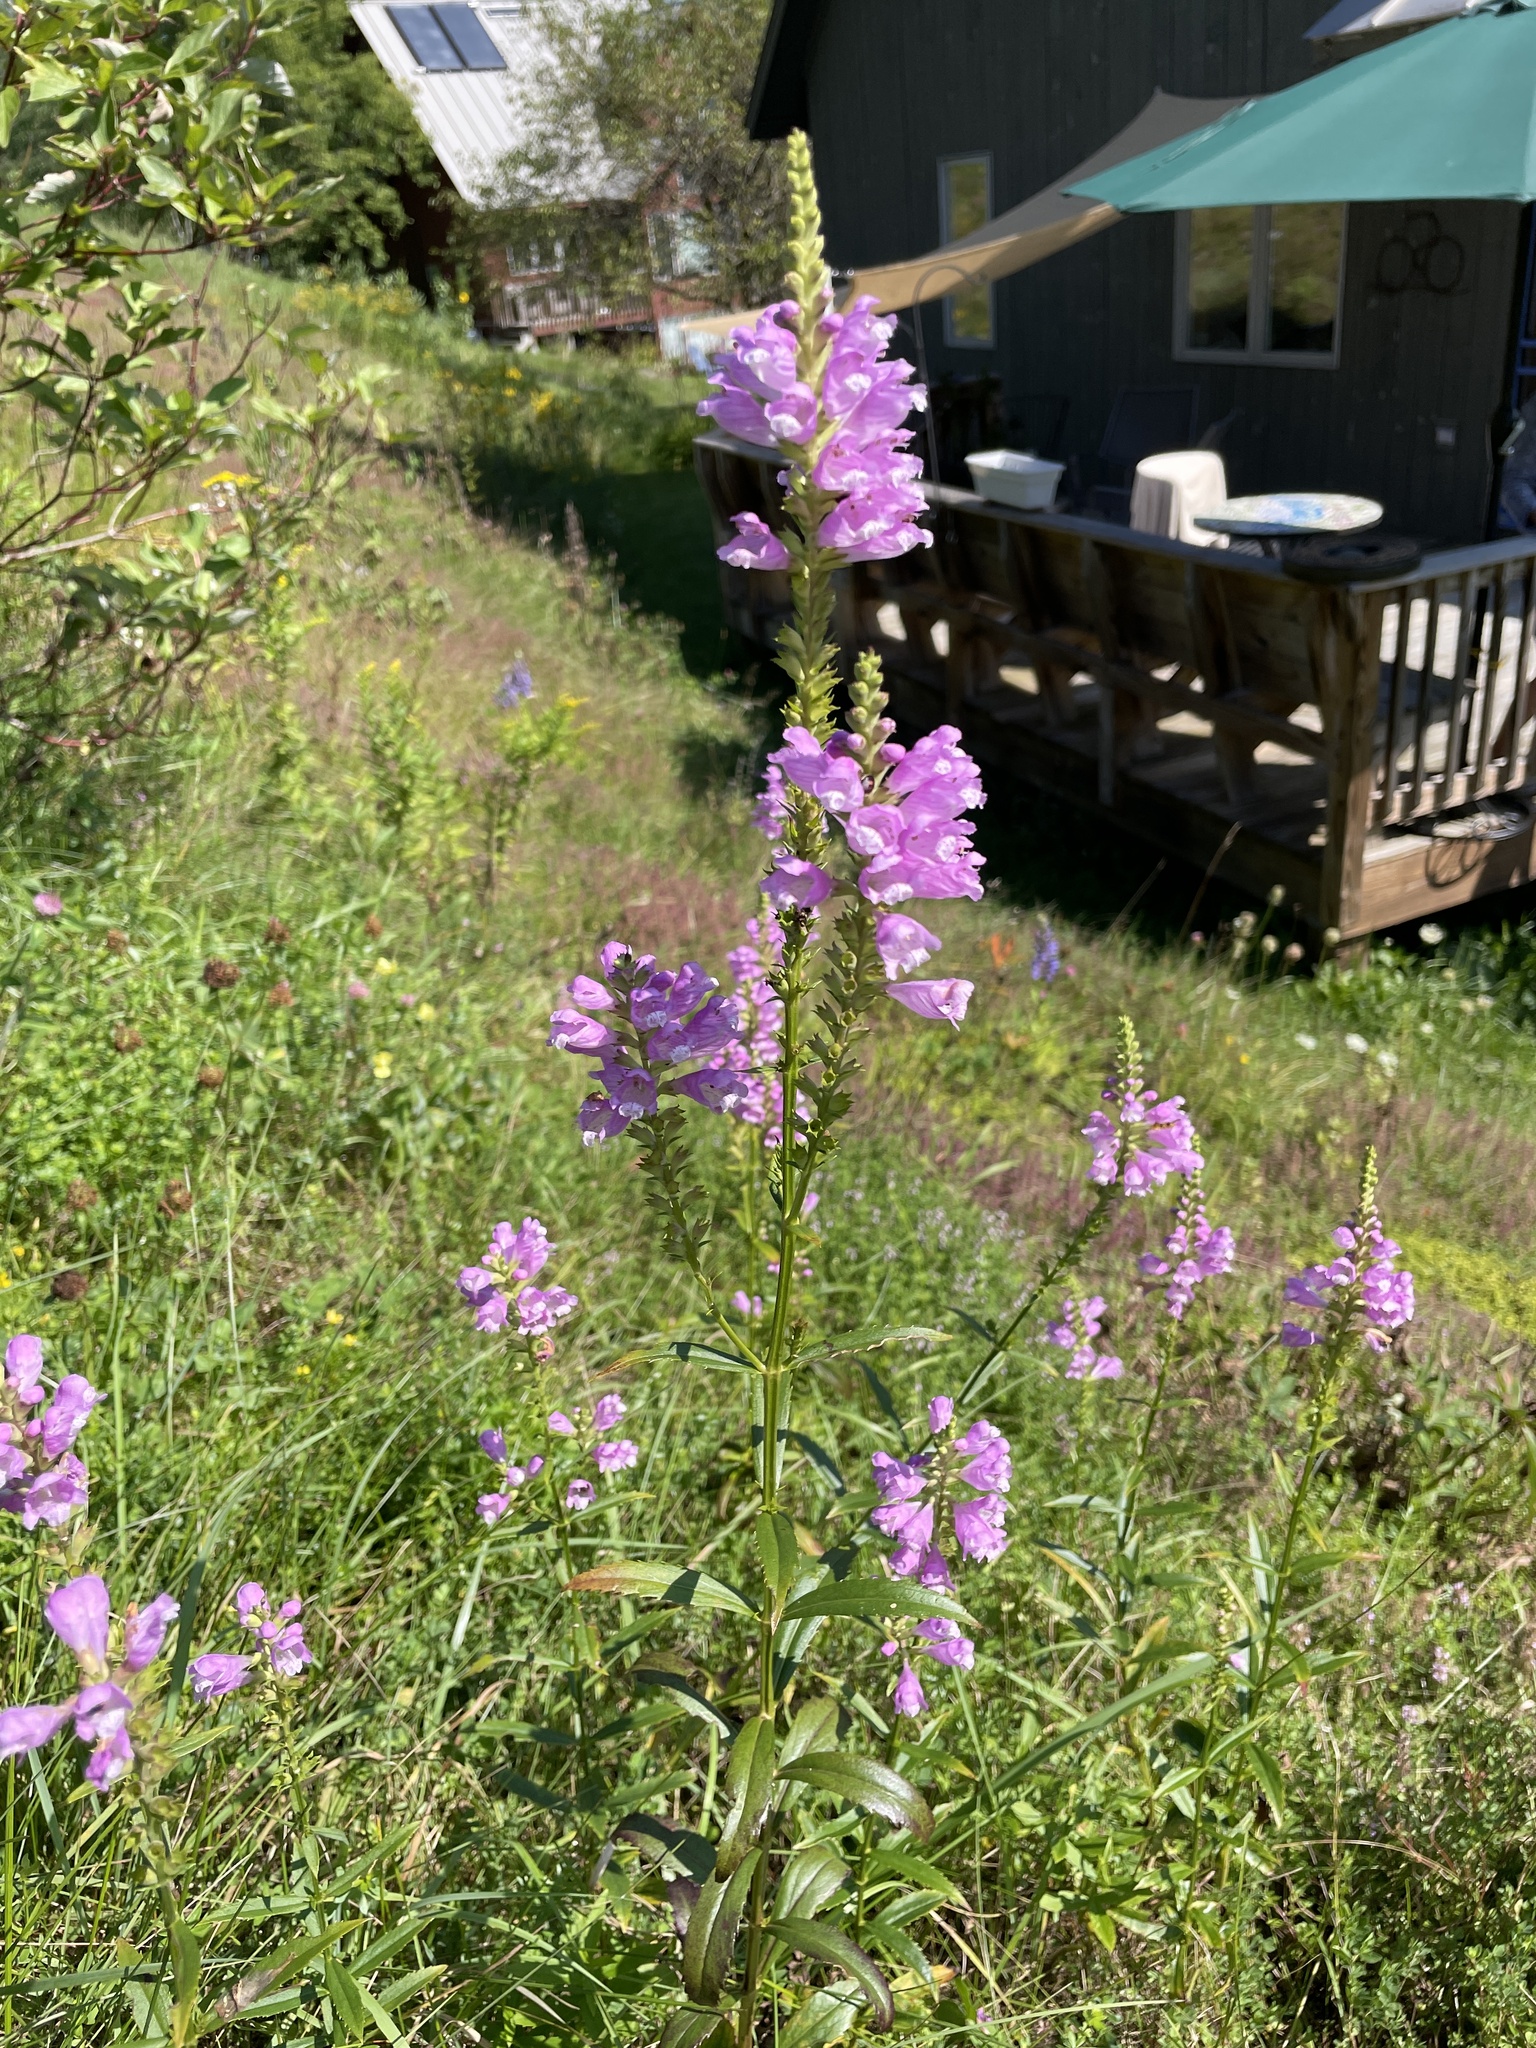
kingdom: Plantae
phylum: Tracheophyta
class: Magnoliopsida
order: Lamiales
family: Lamiaceae
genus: Physostegia
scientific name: Physostegia virginiana
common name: Obedient-plant
